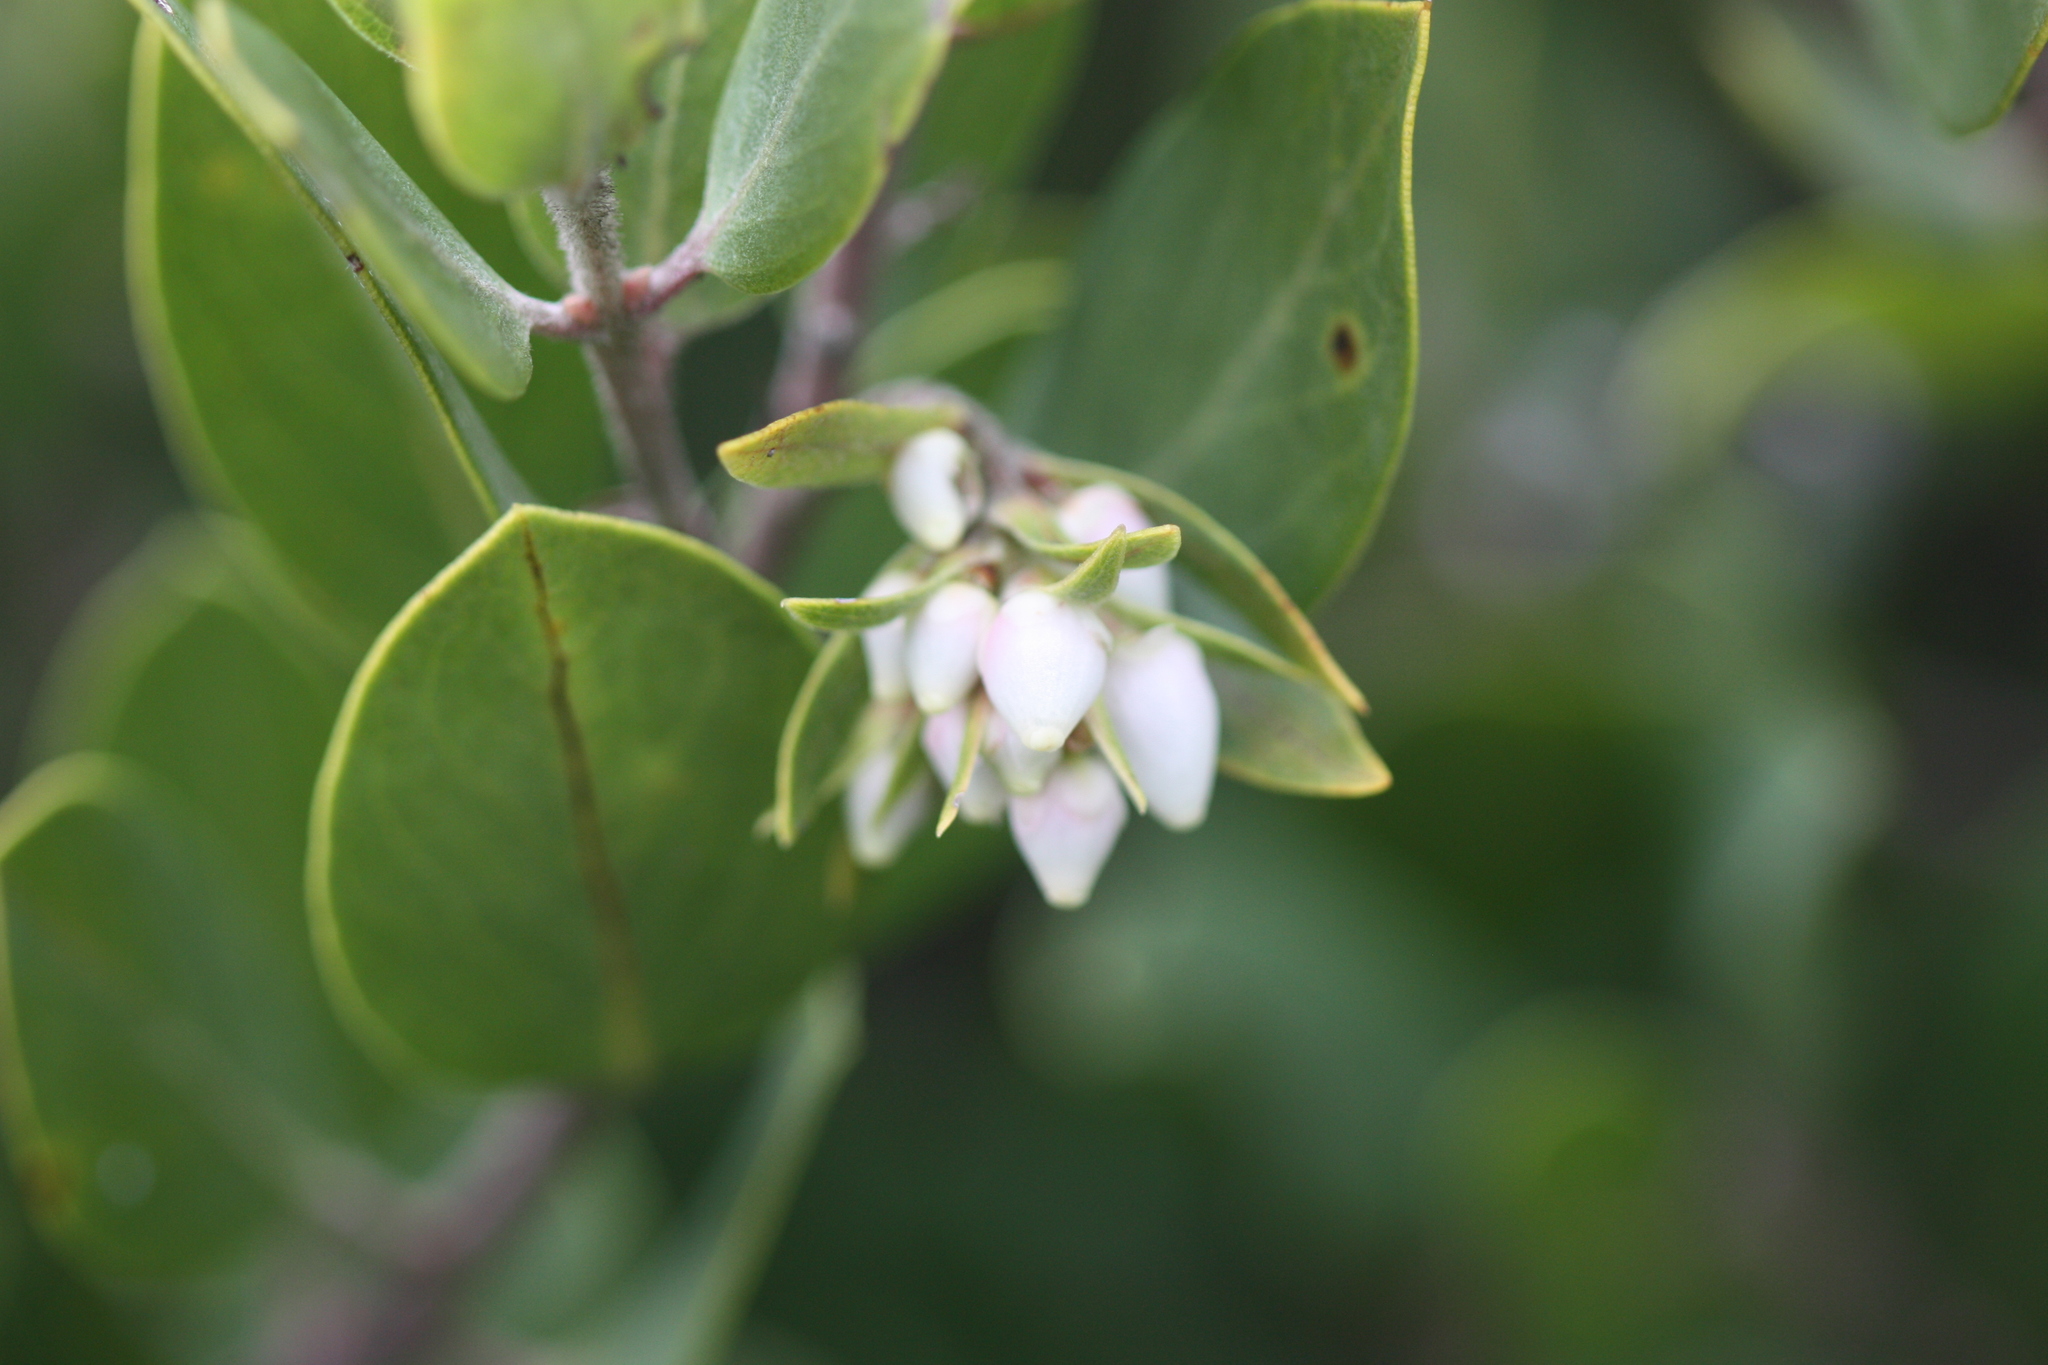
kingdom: Plantae
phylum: Tracheophyta
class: Magnoliopsida
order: Ericales
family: Ericaceae
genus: Arctostaphylos
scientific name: Arctostaphylos glandulosa
